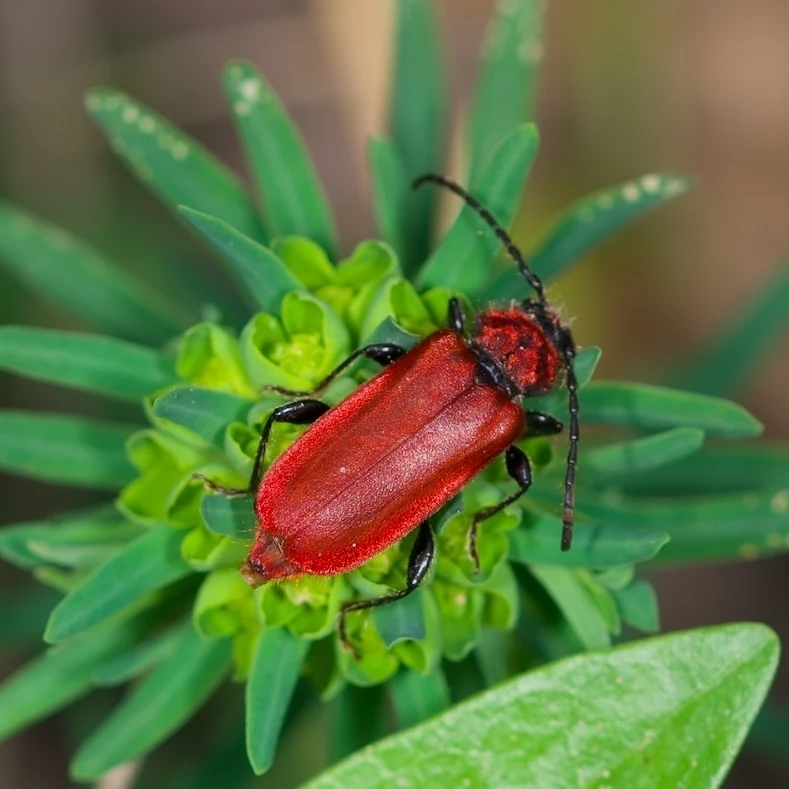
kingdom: Animalia
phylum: Arthropoda
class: Insecta
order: Coleoptera
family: Cerambycidae
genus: Pyrrhidium
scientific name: Pyrrhidium sanguineum
